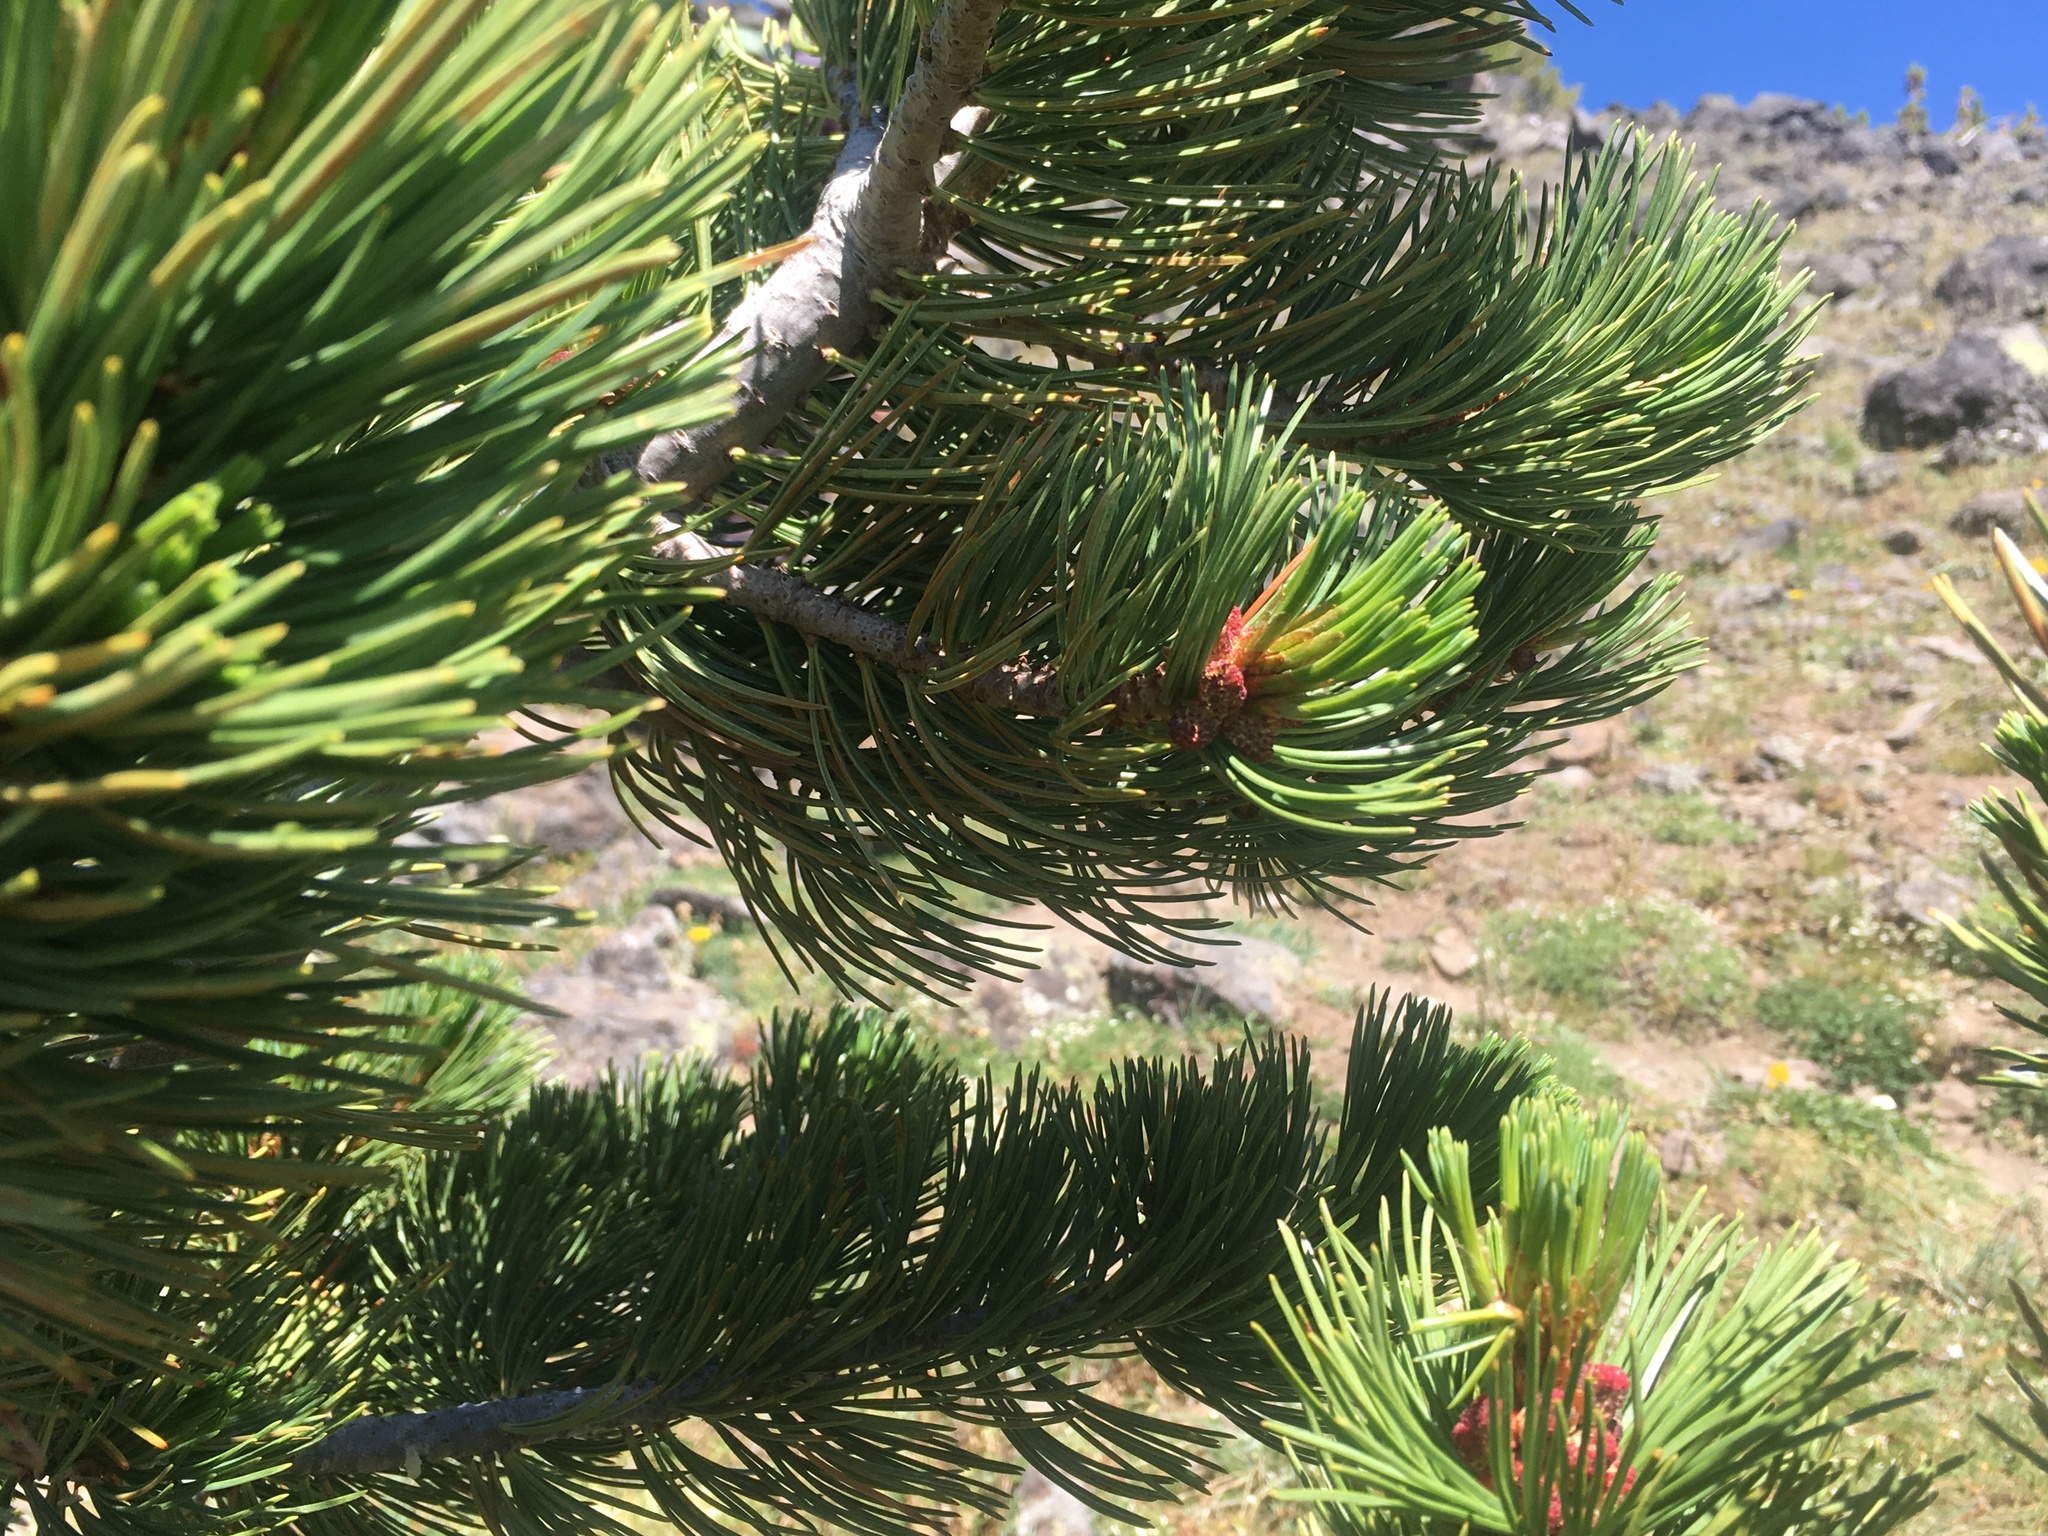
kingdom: Plantae
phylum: Tracheophyta
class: Pinopsida
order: Pinales
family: Pinaceae
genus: Pinus
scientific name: Pinus albicaulis
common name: Whitebark pine
